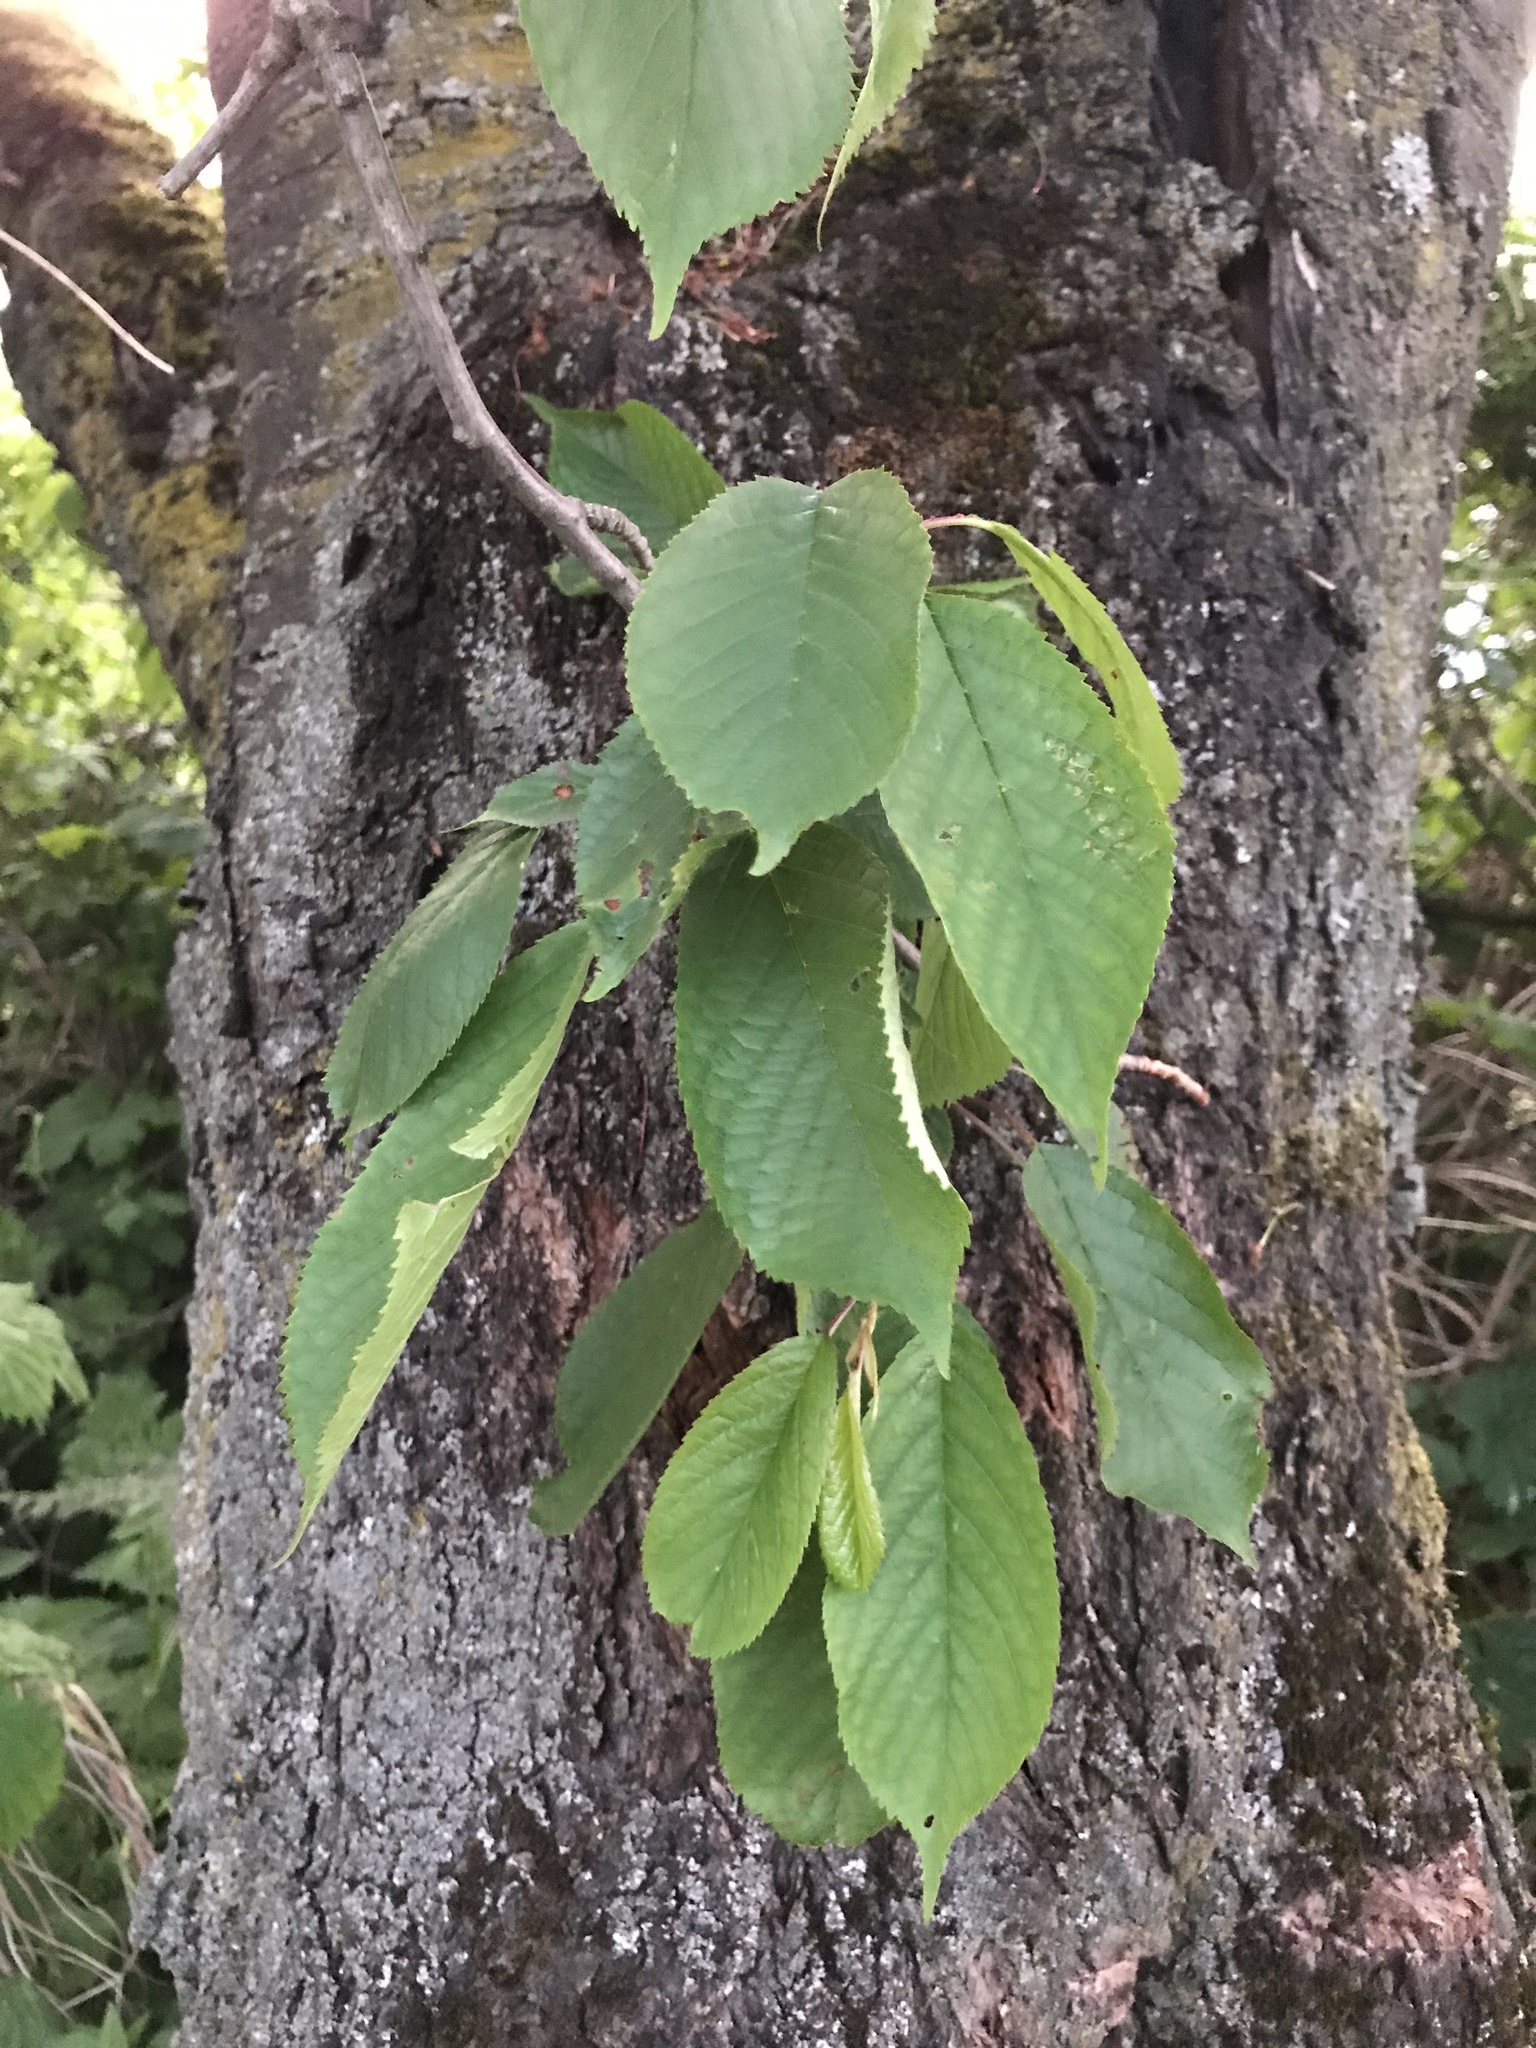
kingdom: Plantae
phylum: Tracheophyta
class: Magnoliopsida
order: Rosales
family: Rosaceae
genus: Prunus
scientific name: Prunus avium
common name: Sweet cherry
